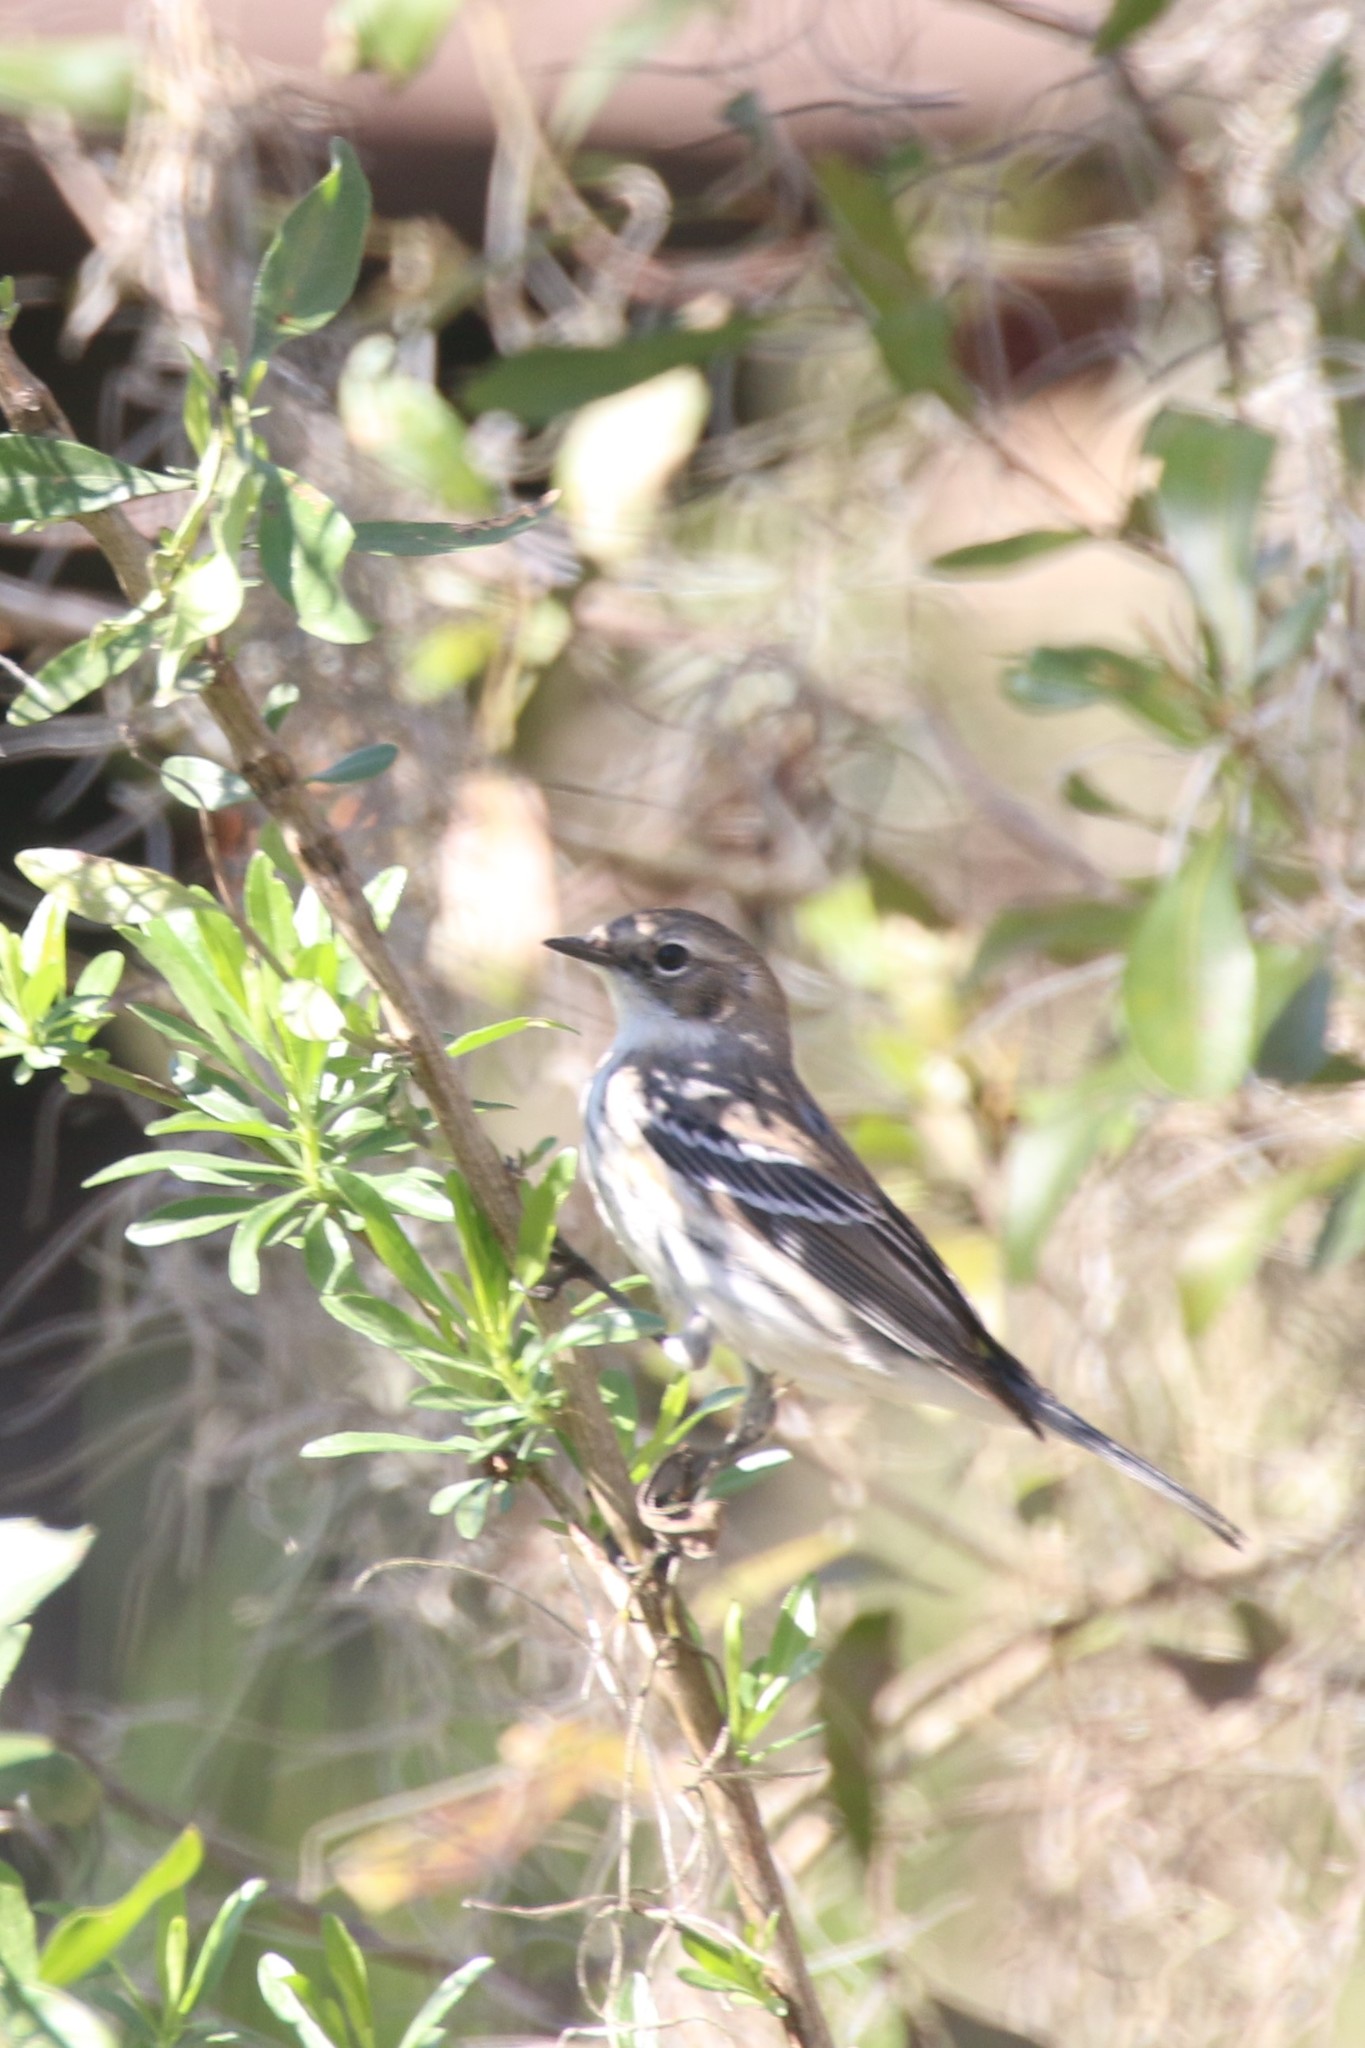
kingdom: Animalia
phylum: Chordata
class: Aves
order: Passeriformes
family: Parulidae
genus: Setophaga
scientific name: Setophaga coronata
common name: Myrtle warbler
